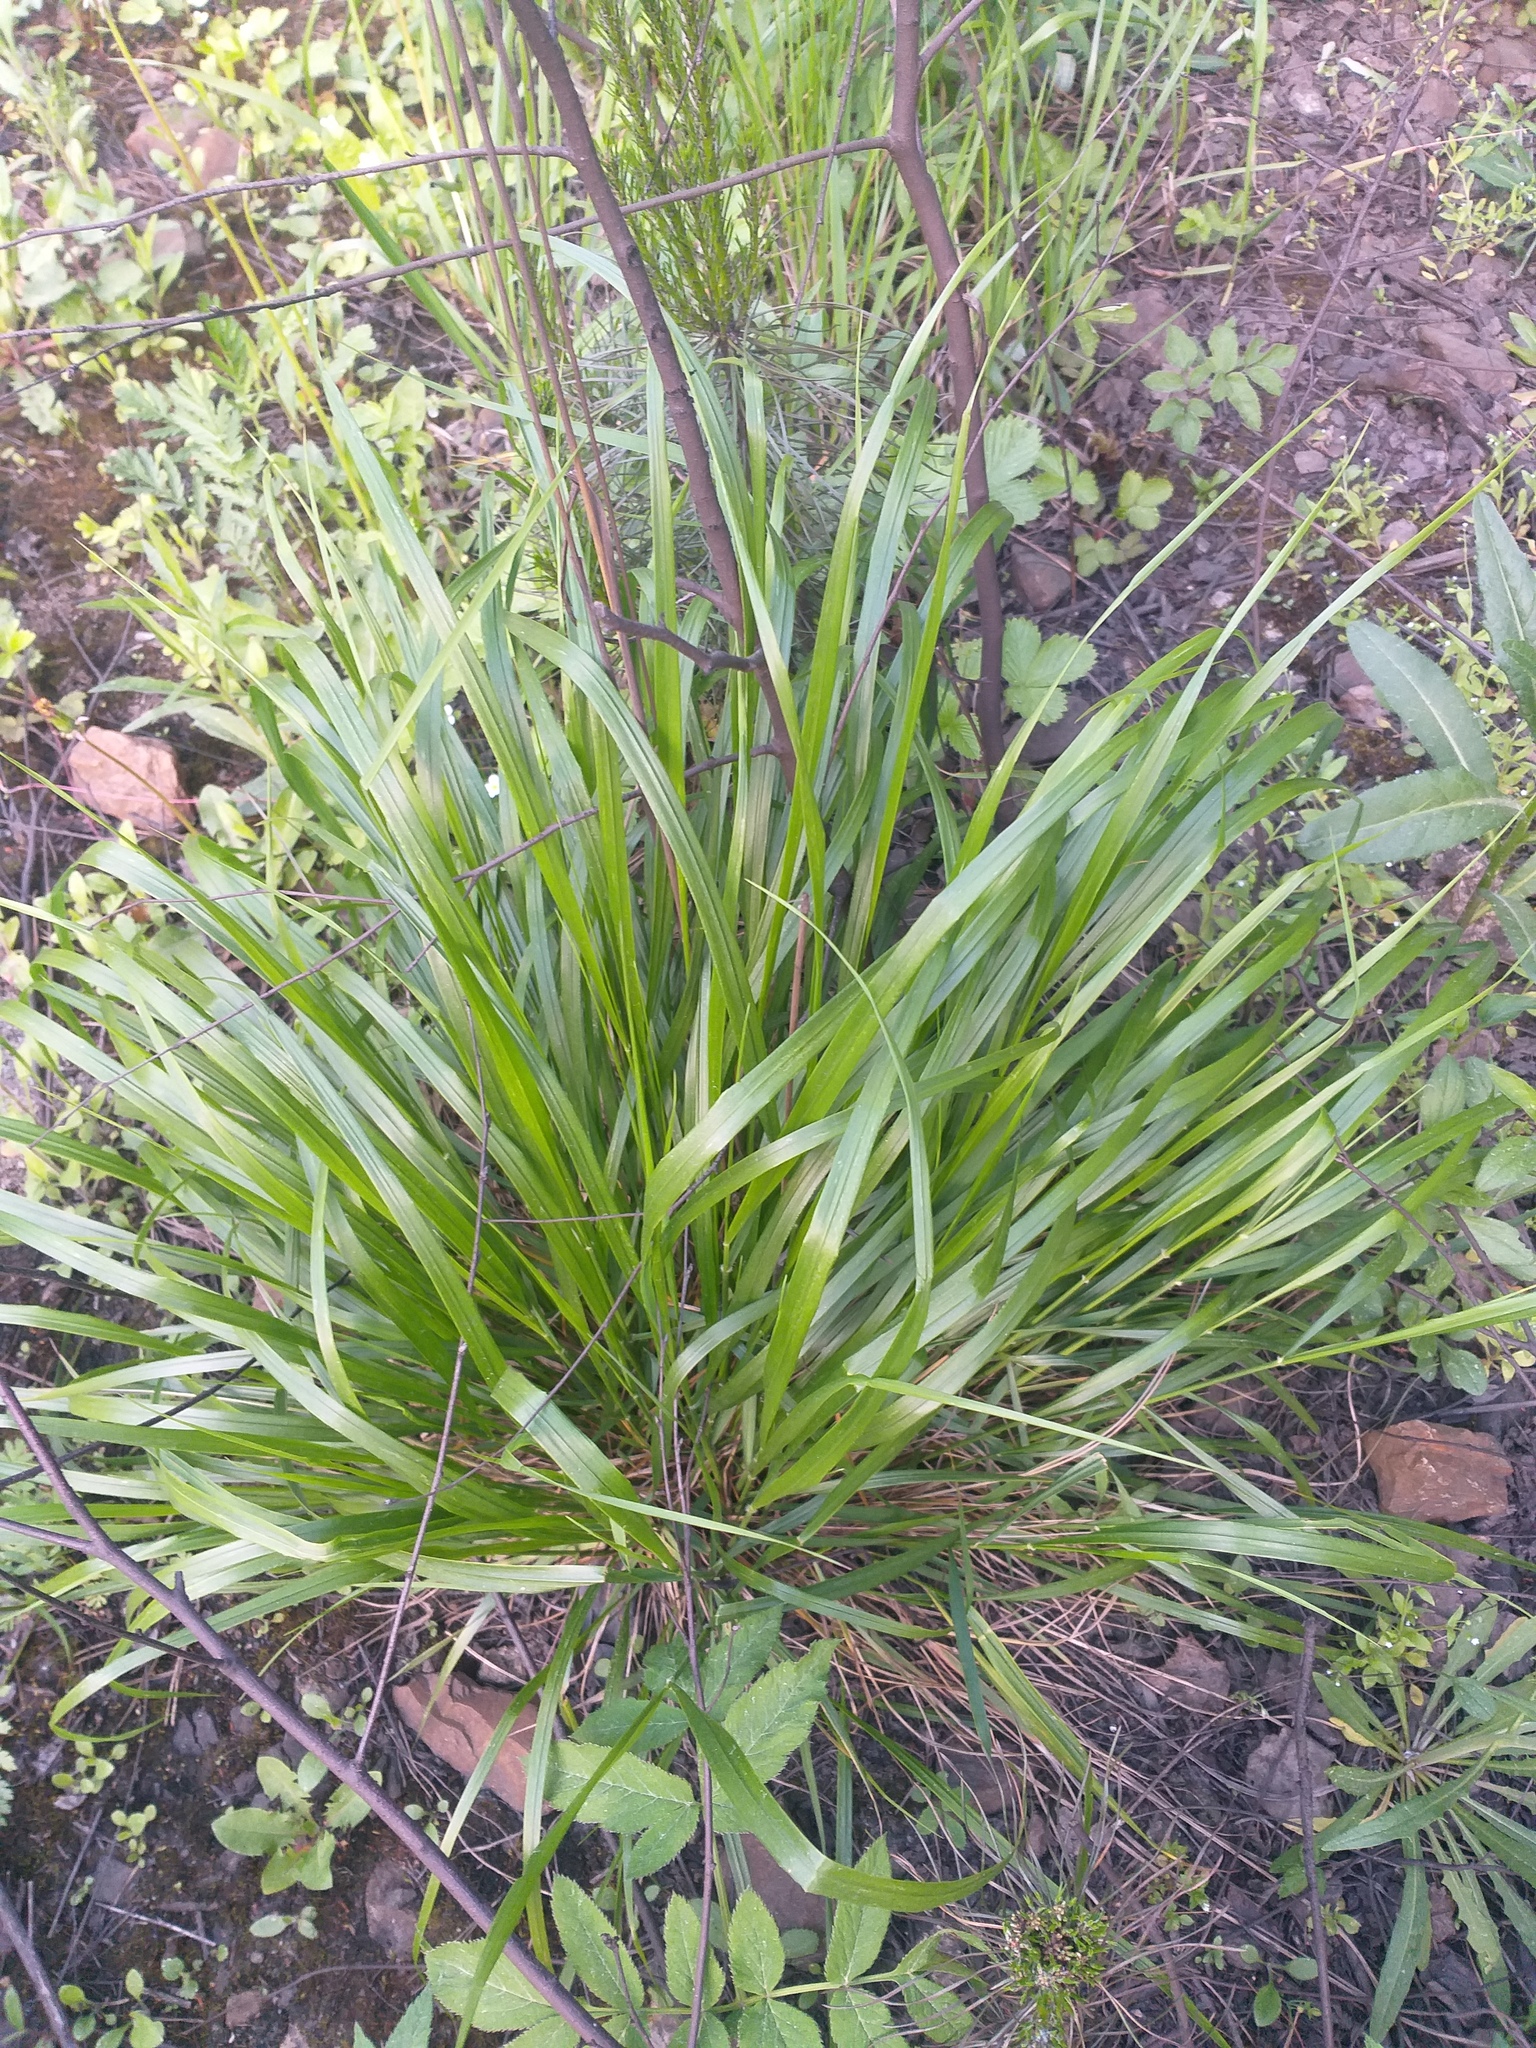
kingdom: Plantae
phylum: Tracheophyta
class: Liliopsida
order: Poales
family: Poaceae
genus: Calamagrostis
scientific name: Calamagrostis arundinacea
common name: Metskastik
